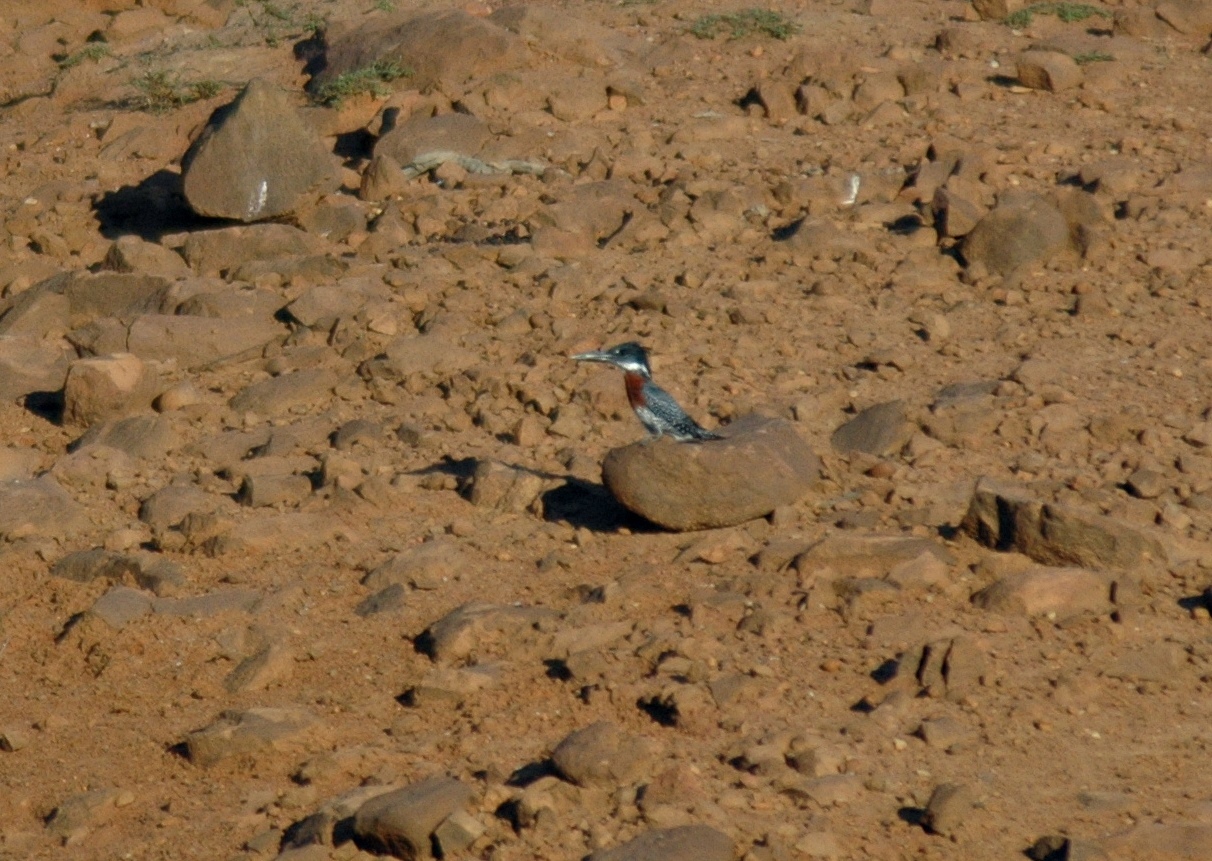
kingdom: Animalia
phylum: Chordata
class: Aves
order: Coraciiformes
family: Alcedinidae
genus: Megaceryle
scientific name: Megaceryle maxima
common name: Giant kingfisher
